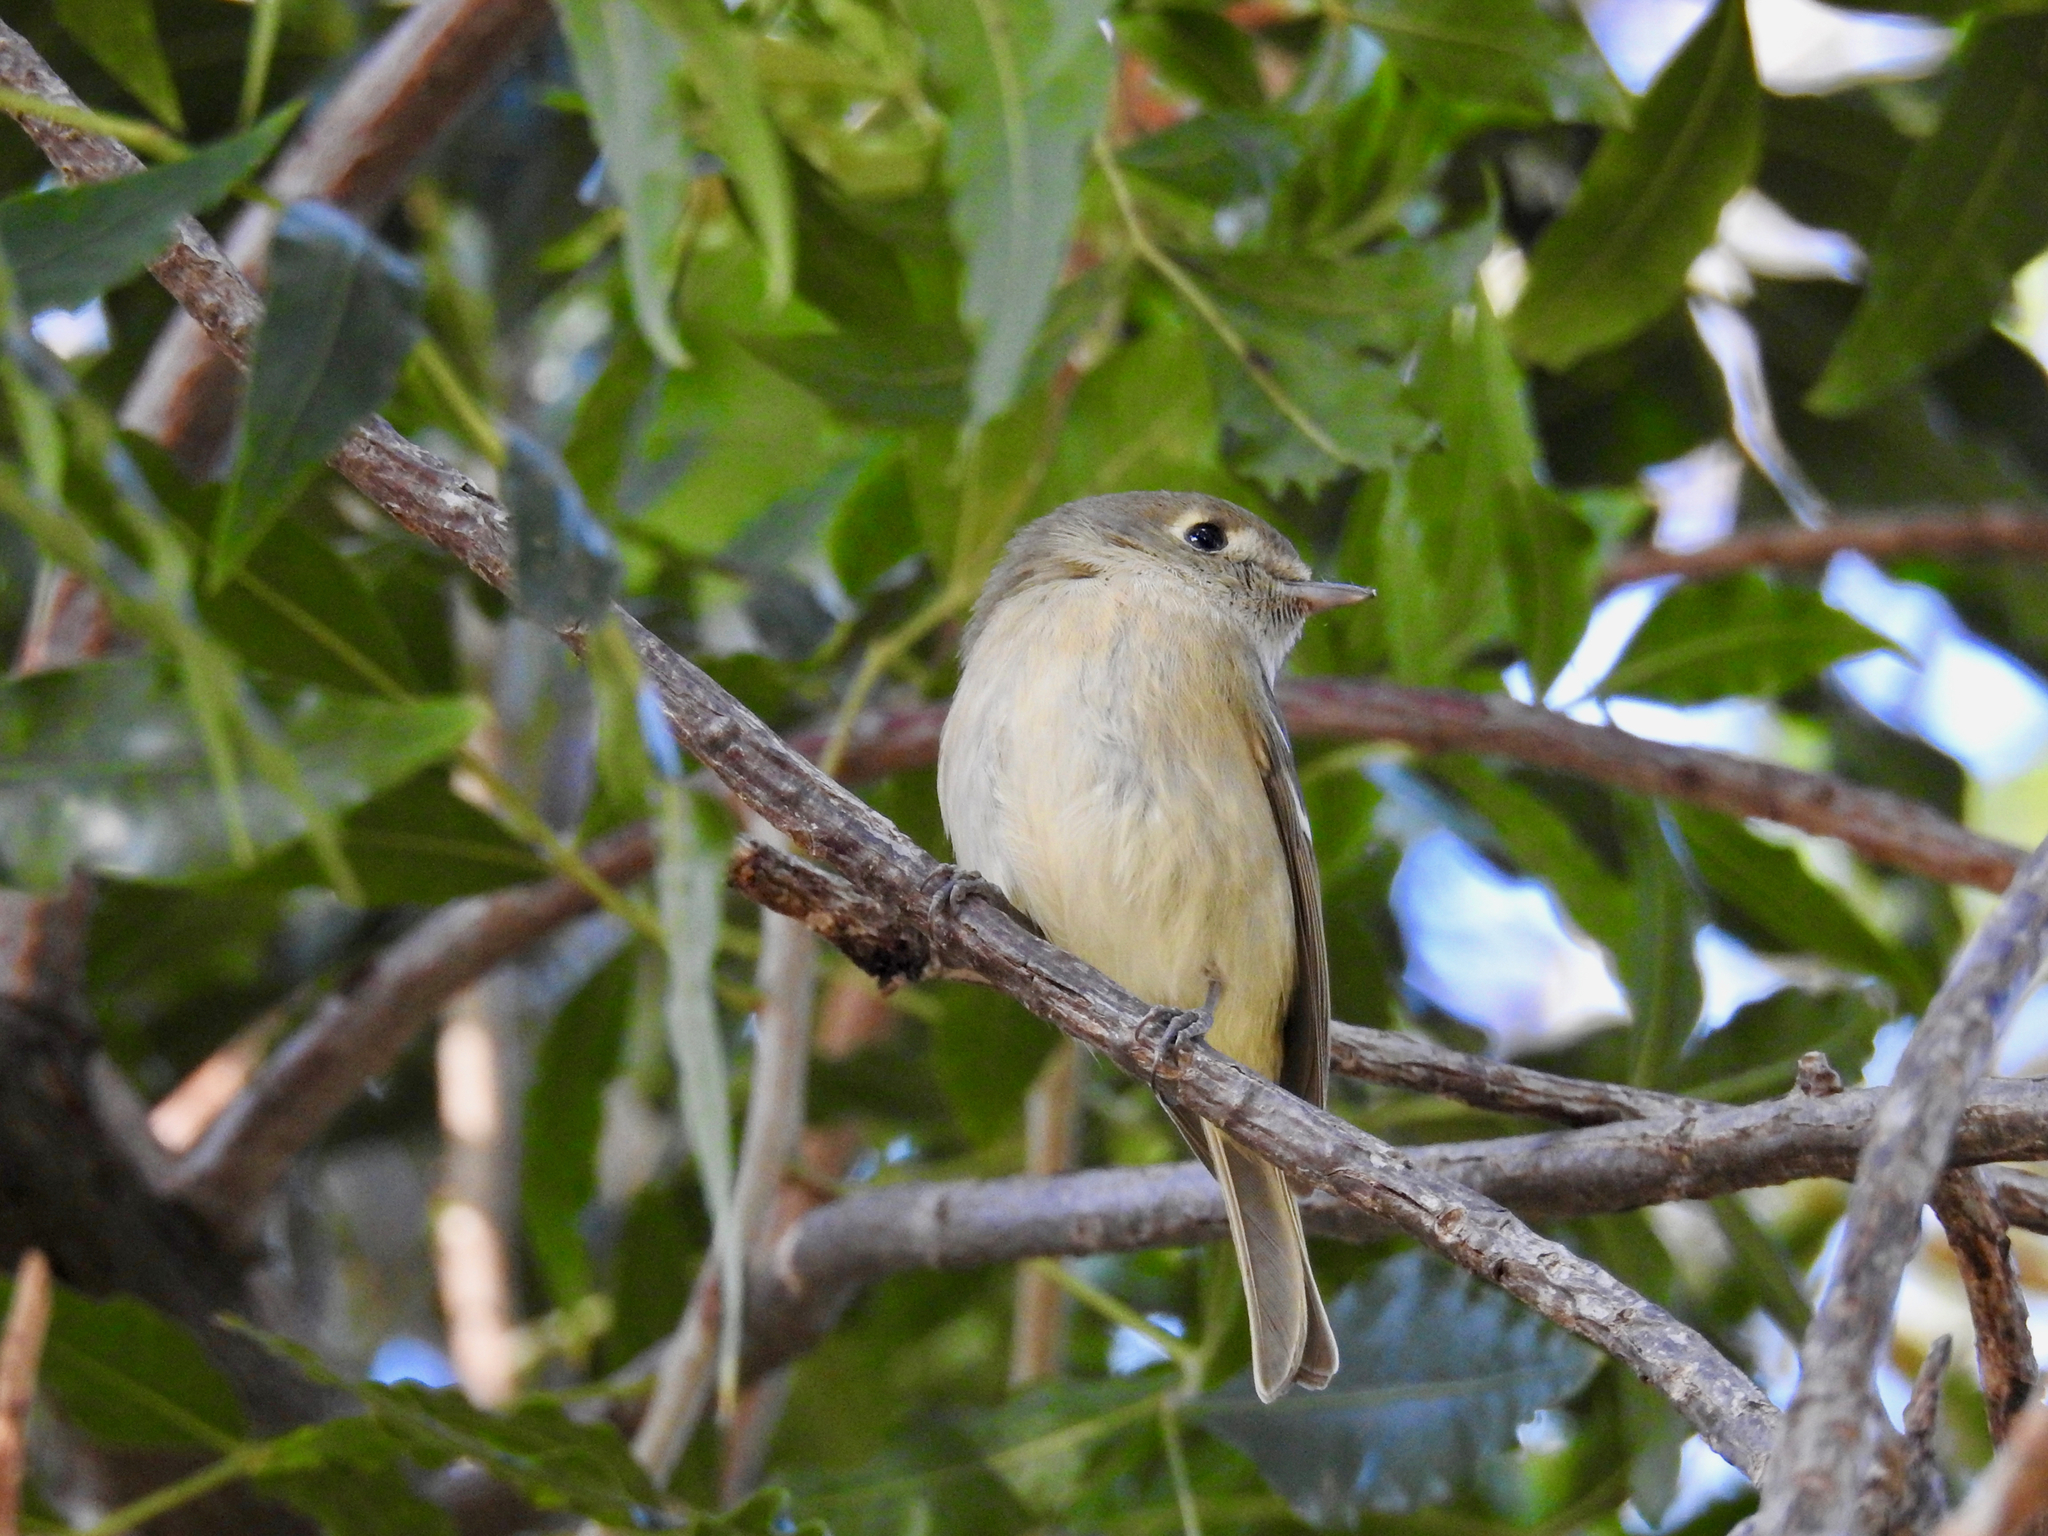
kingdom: Animalia
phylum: Chordata
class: Aves
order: Passeriformes
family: Vireonidae
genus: Vireo
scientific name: Vireo huttoni
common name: Hutton's vireo
